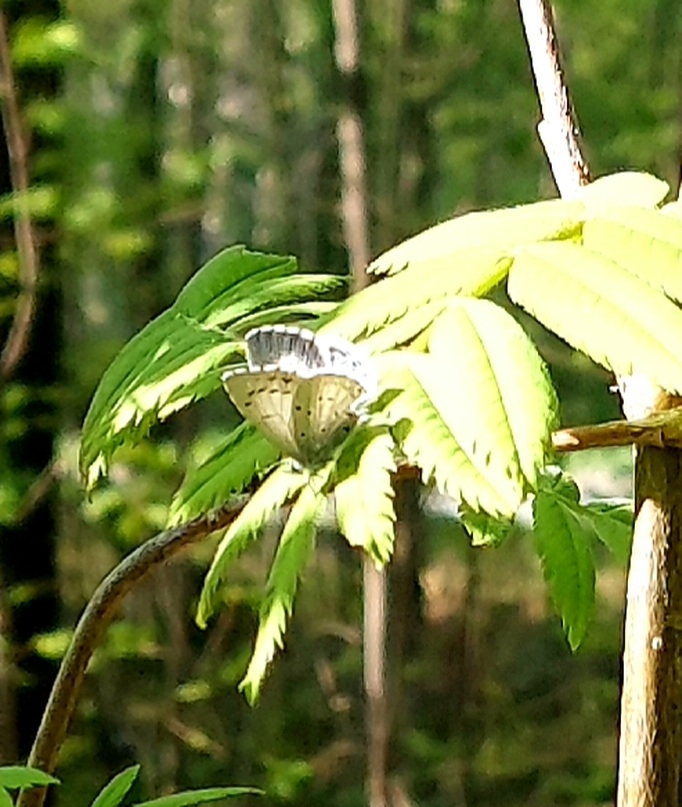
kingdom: Animalia
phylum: Arthropoda
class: Insecta
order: Lepidoptera
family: Lycaenidae
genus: Celastrina
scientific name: Celastrina argiolus
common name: Holly blue
